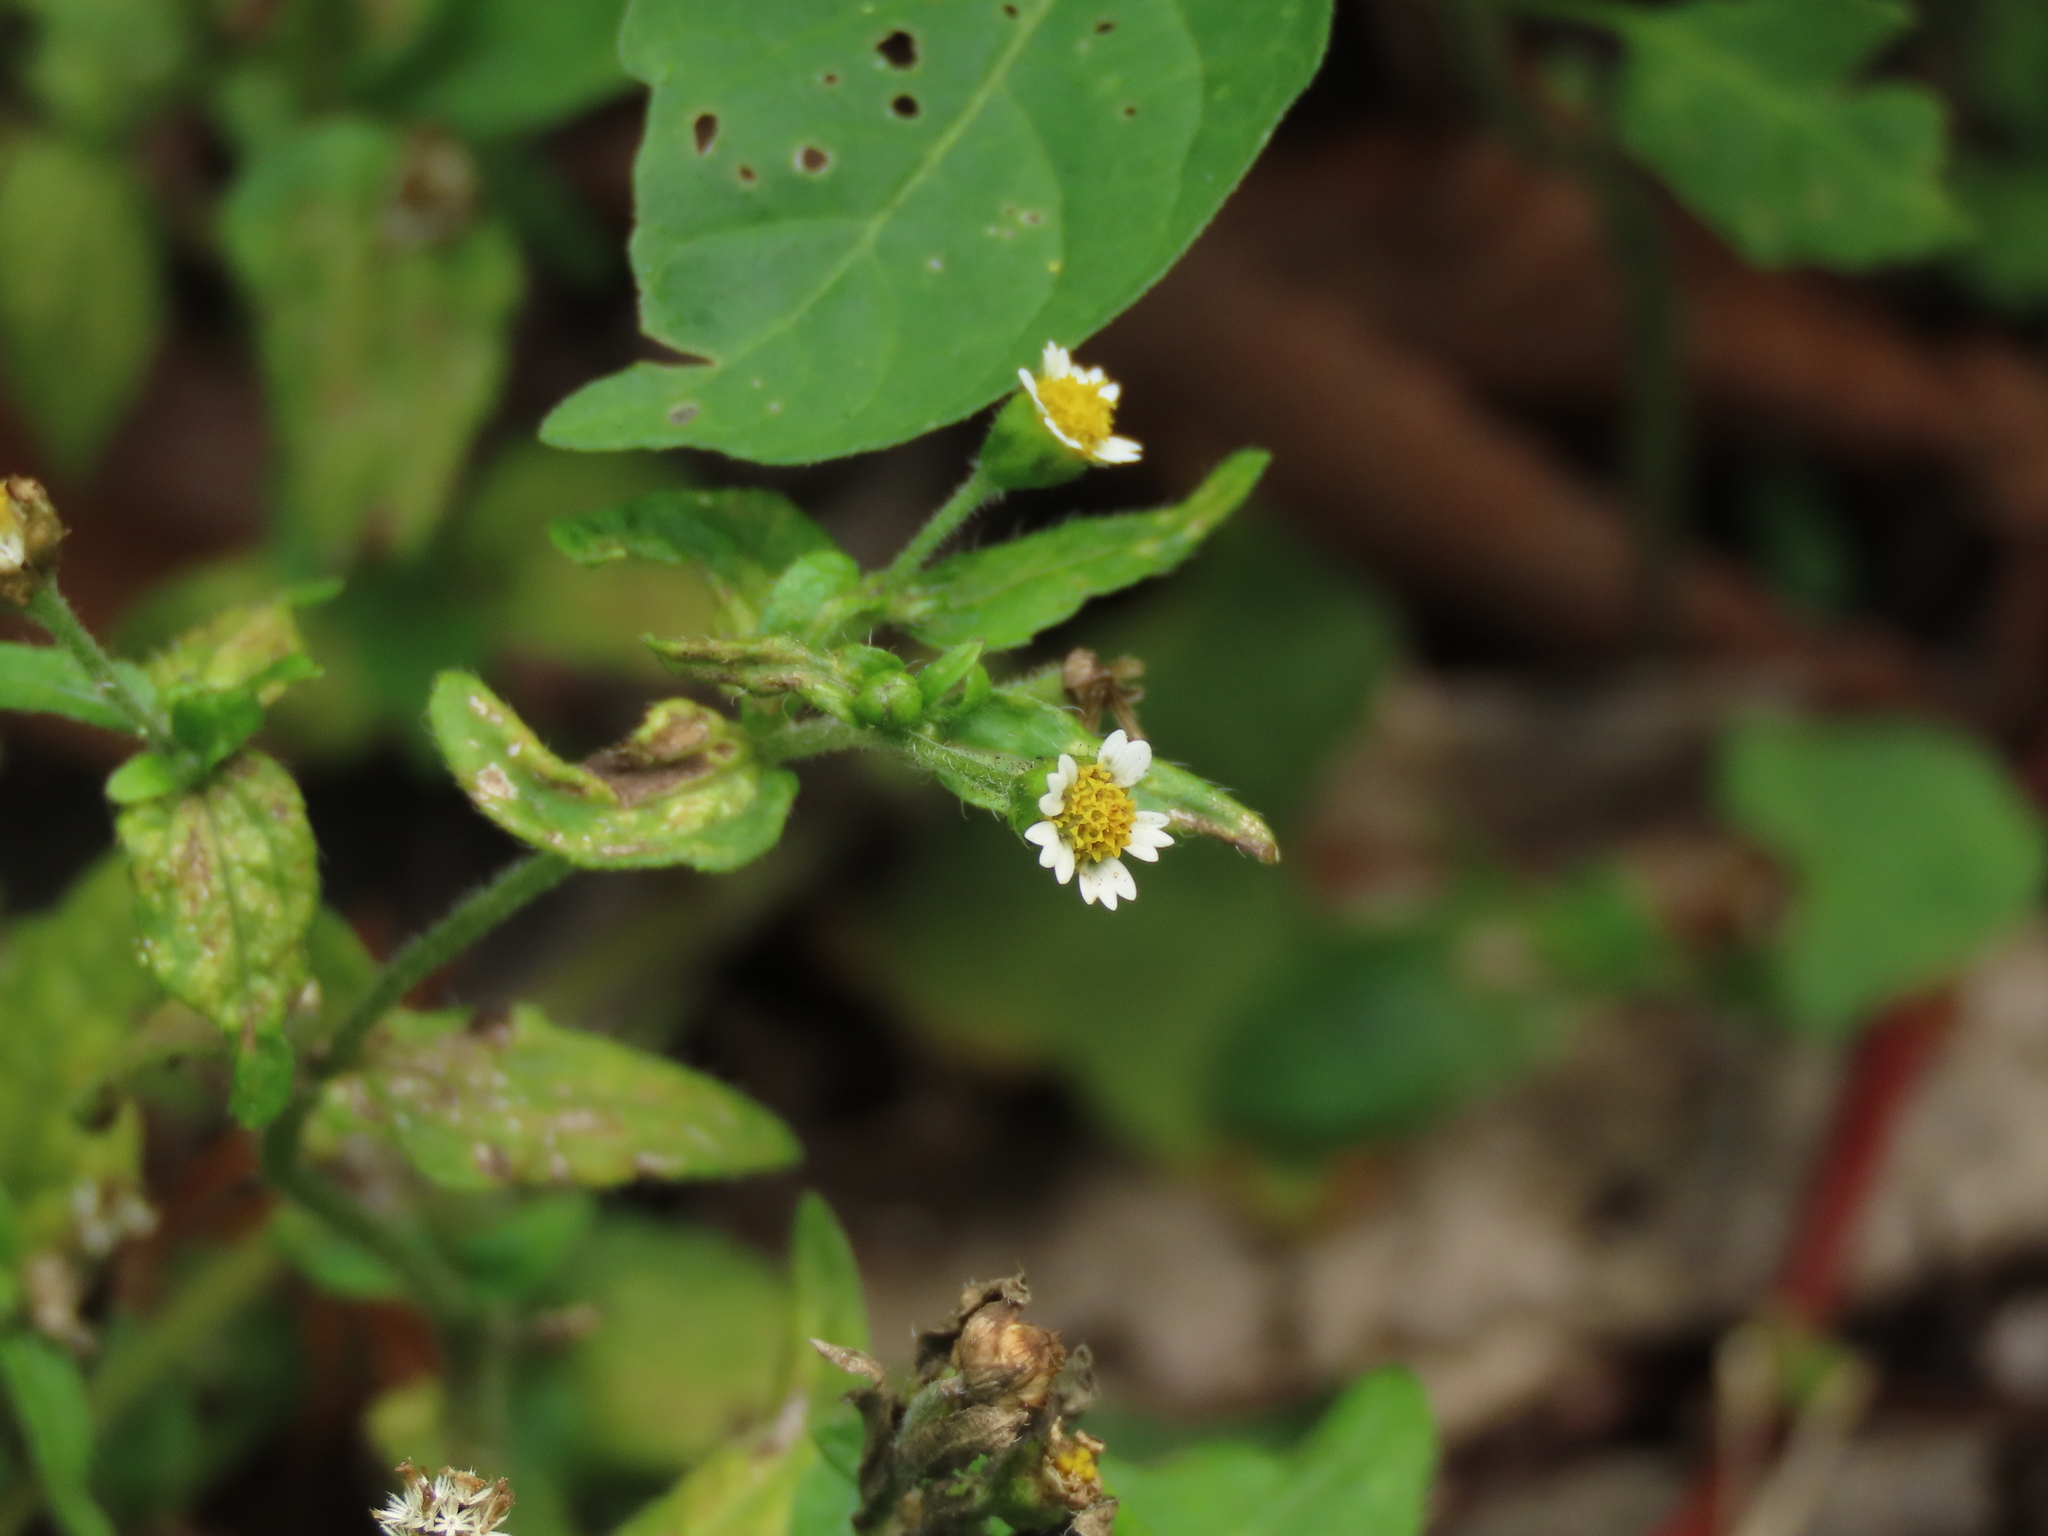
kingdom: Plantae
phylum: Tracheophyta
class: Magnoliopsida
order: Asterales
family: Asteraceae
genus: Galinsoga
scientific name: Galinsoga quadriradiata
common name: Shaggy soldier
